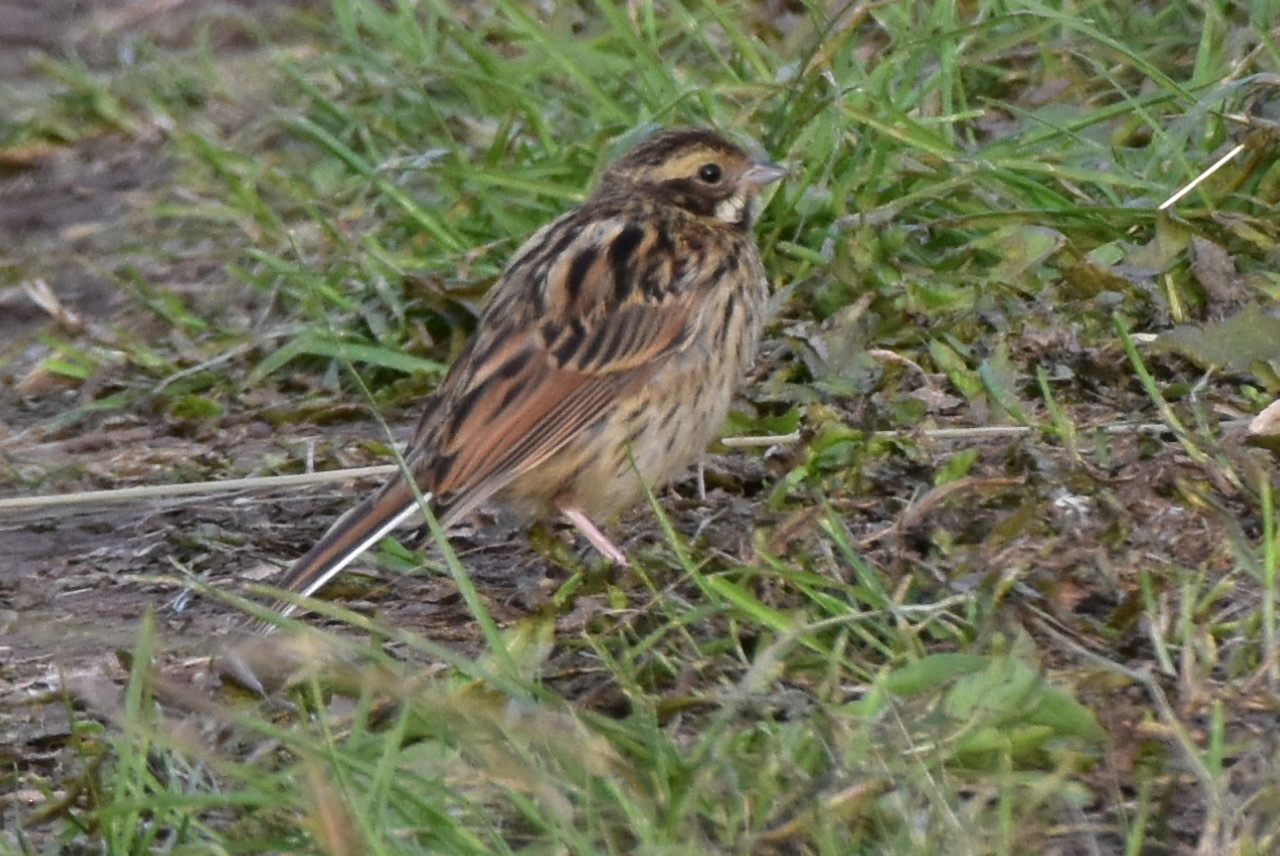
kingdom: Animalia
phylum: Chordata
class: Aves
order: Passeriformes
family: Emberizidae
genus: Emberiza
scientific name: Emberiza schoeniclus
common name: Reed bunting
